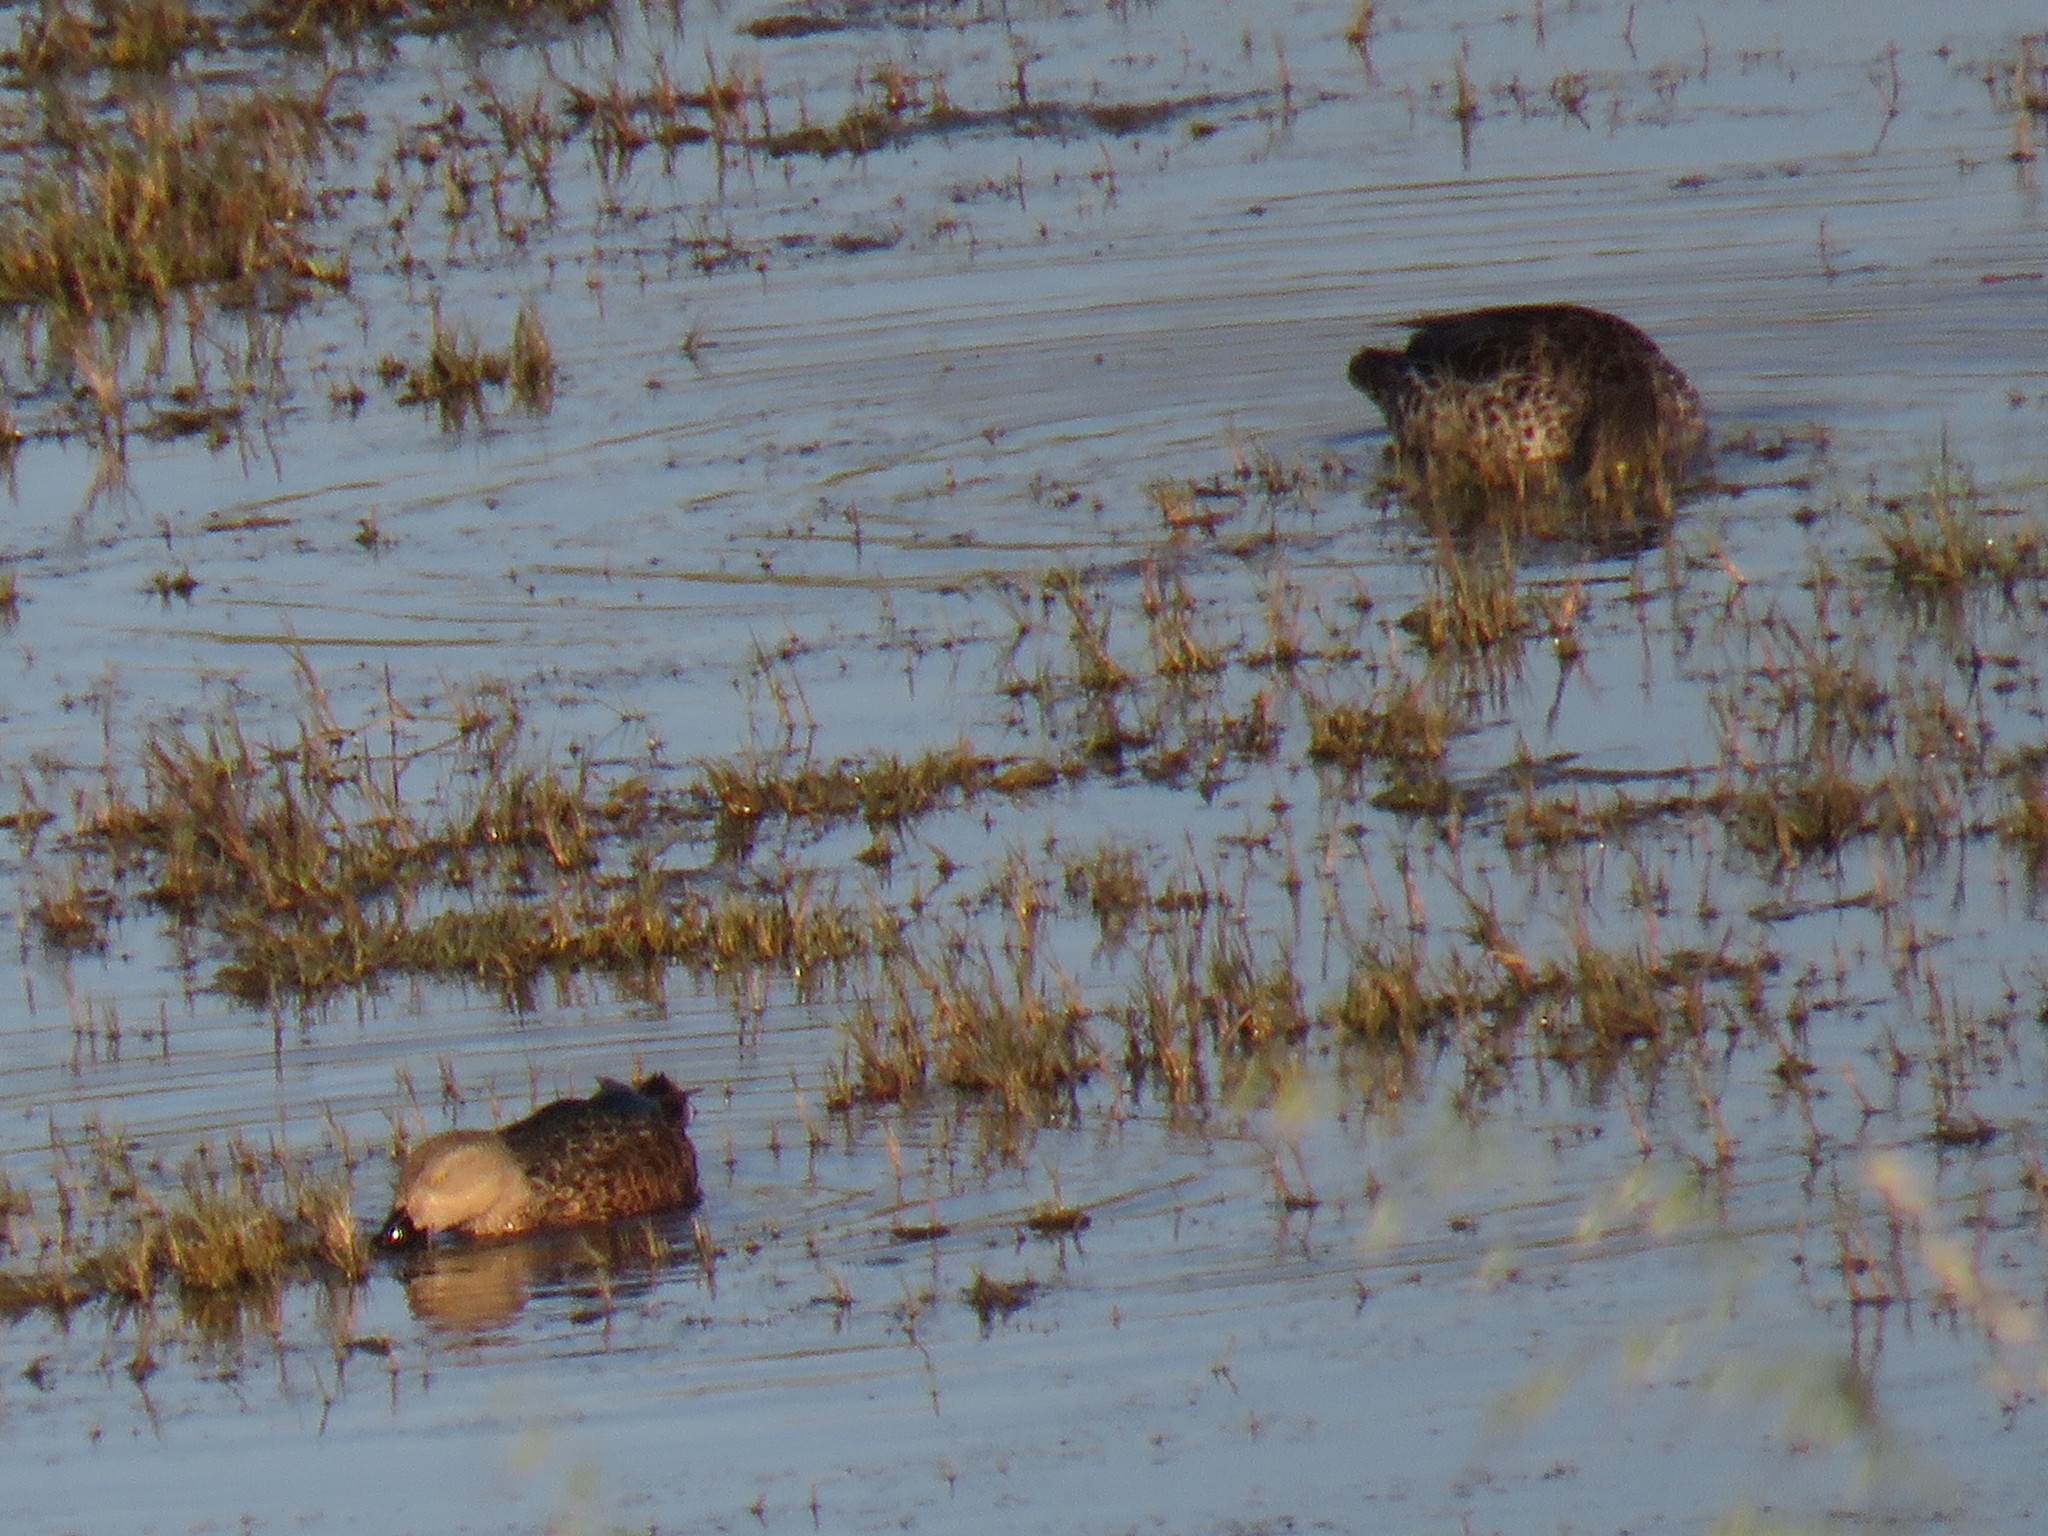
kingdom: Animalia
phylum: Chordata
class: Aves
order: Anseriformes
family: Anatidae
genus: Spatula
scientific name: Spatula smithii
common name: Cape shoveler
